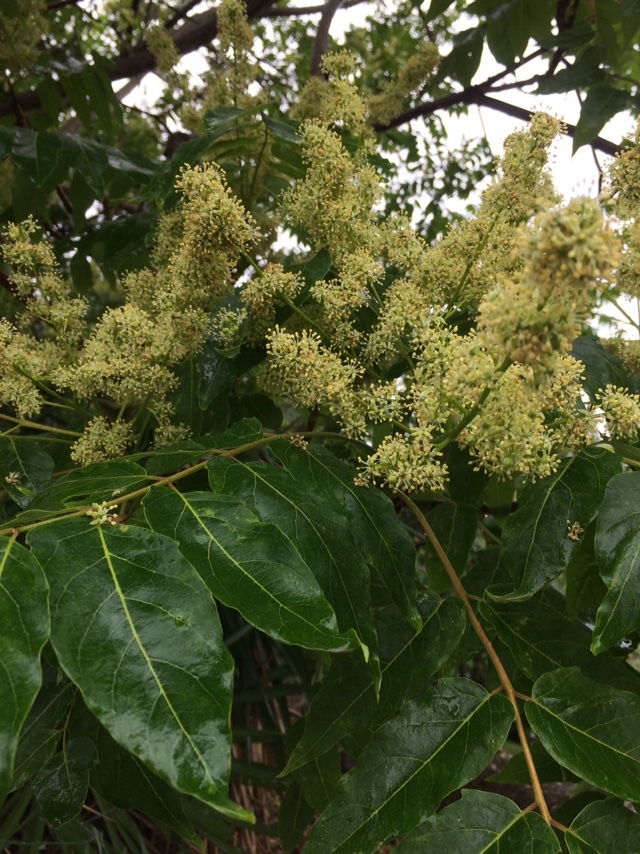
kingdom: Plantae
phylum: Tracheophyta
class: Magnoliopsida
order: Sapindales
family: Simaroubaceae
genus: Ailanthus
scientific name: Ailanthus altissima
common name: Tree-of-heaven
